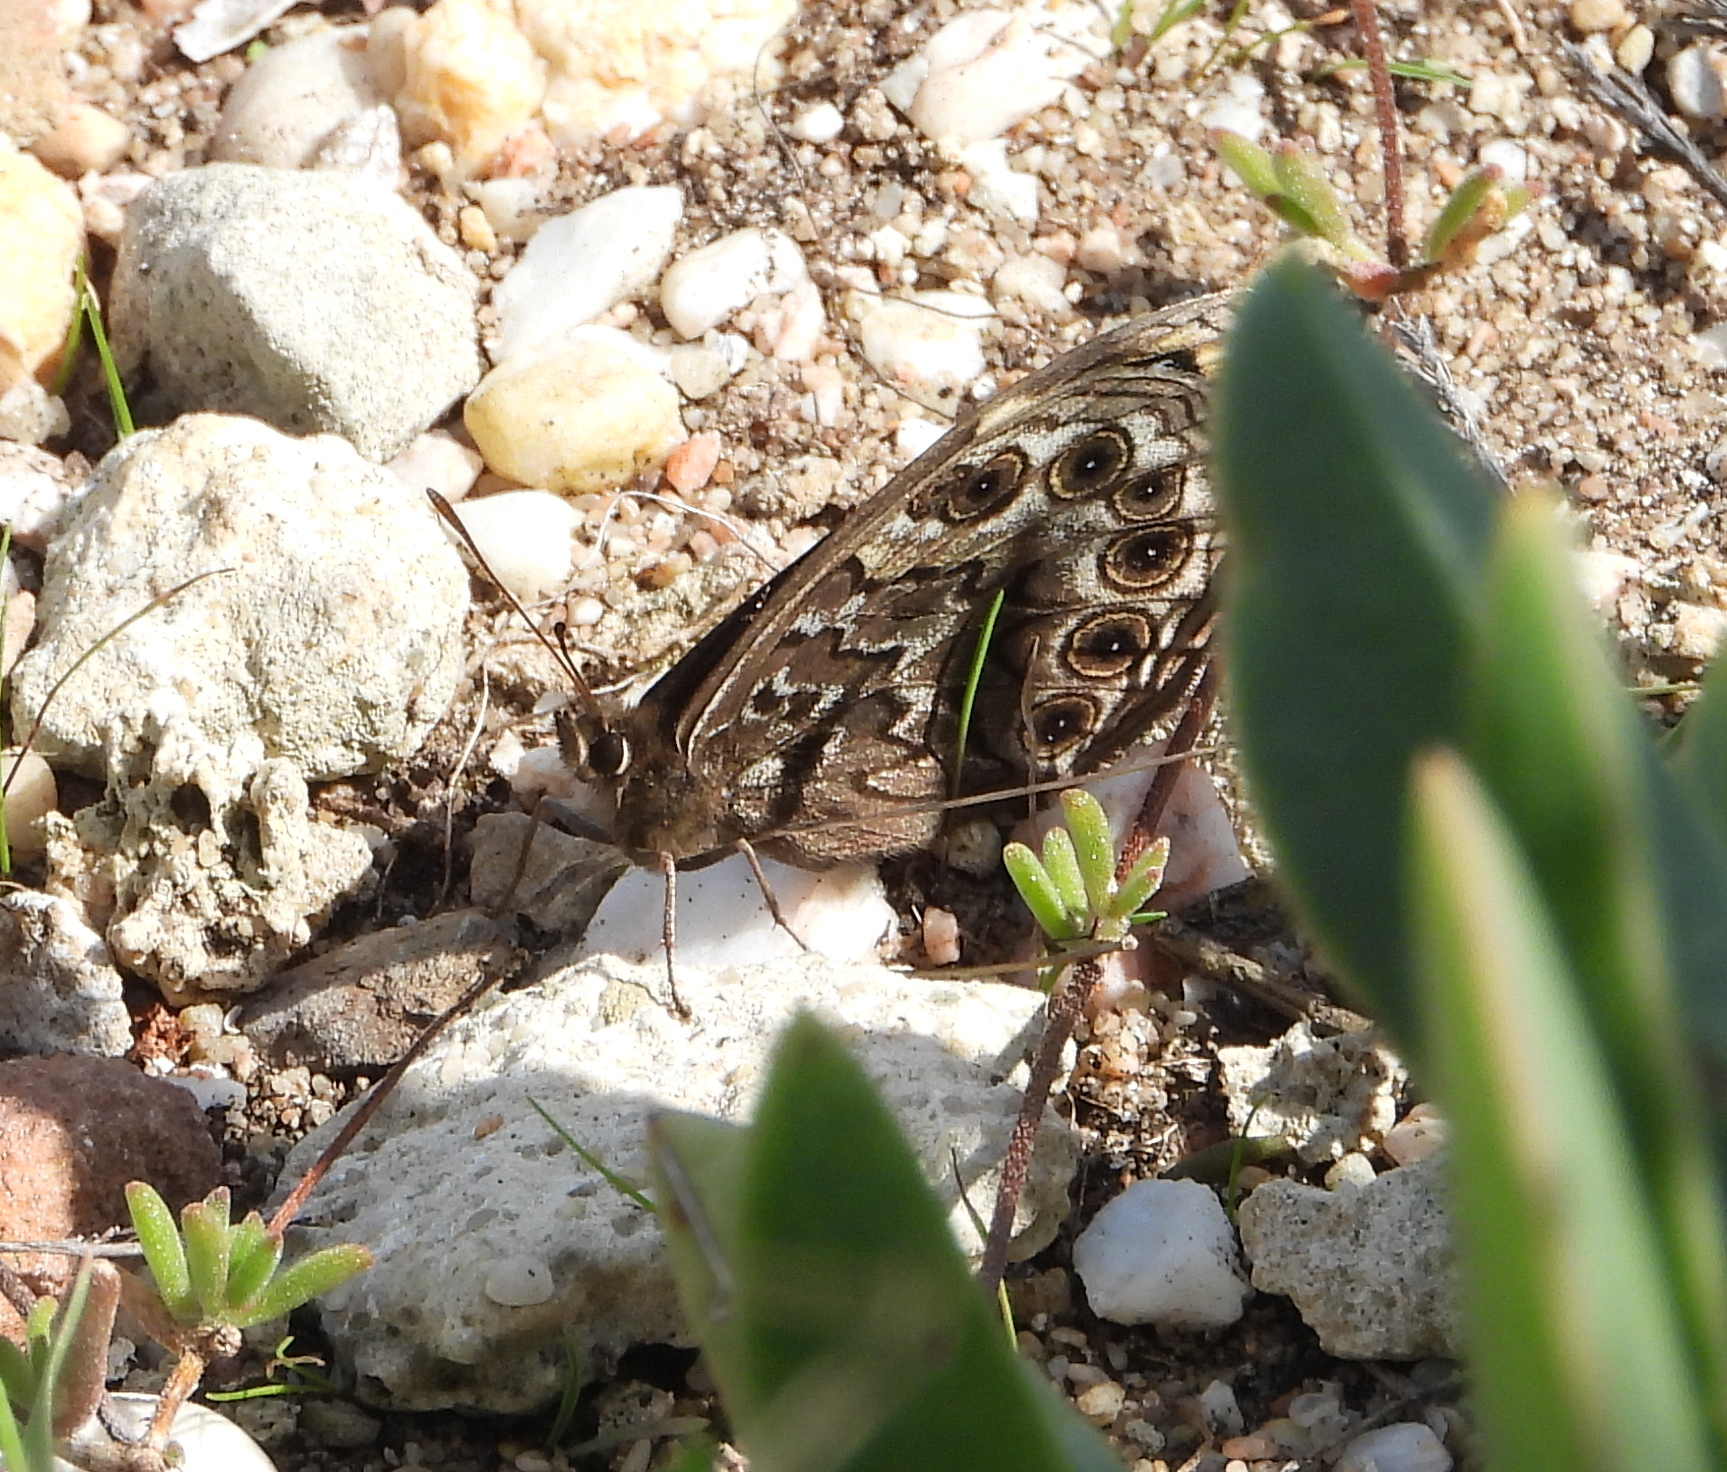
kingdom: Animalia
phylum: Arthropoda
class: Insecta
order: Lepidoptera
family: Nymphalidae
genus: Dira
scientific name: Dira clytus
